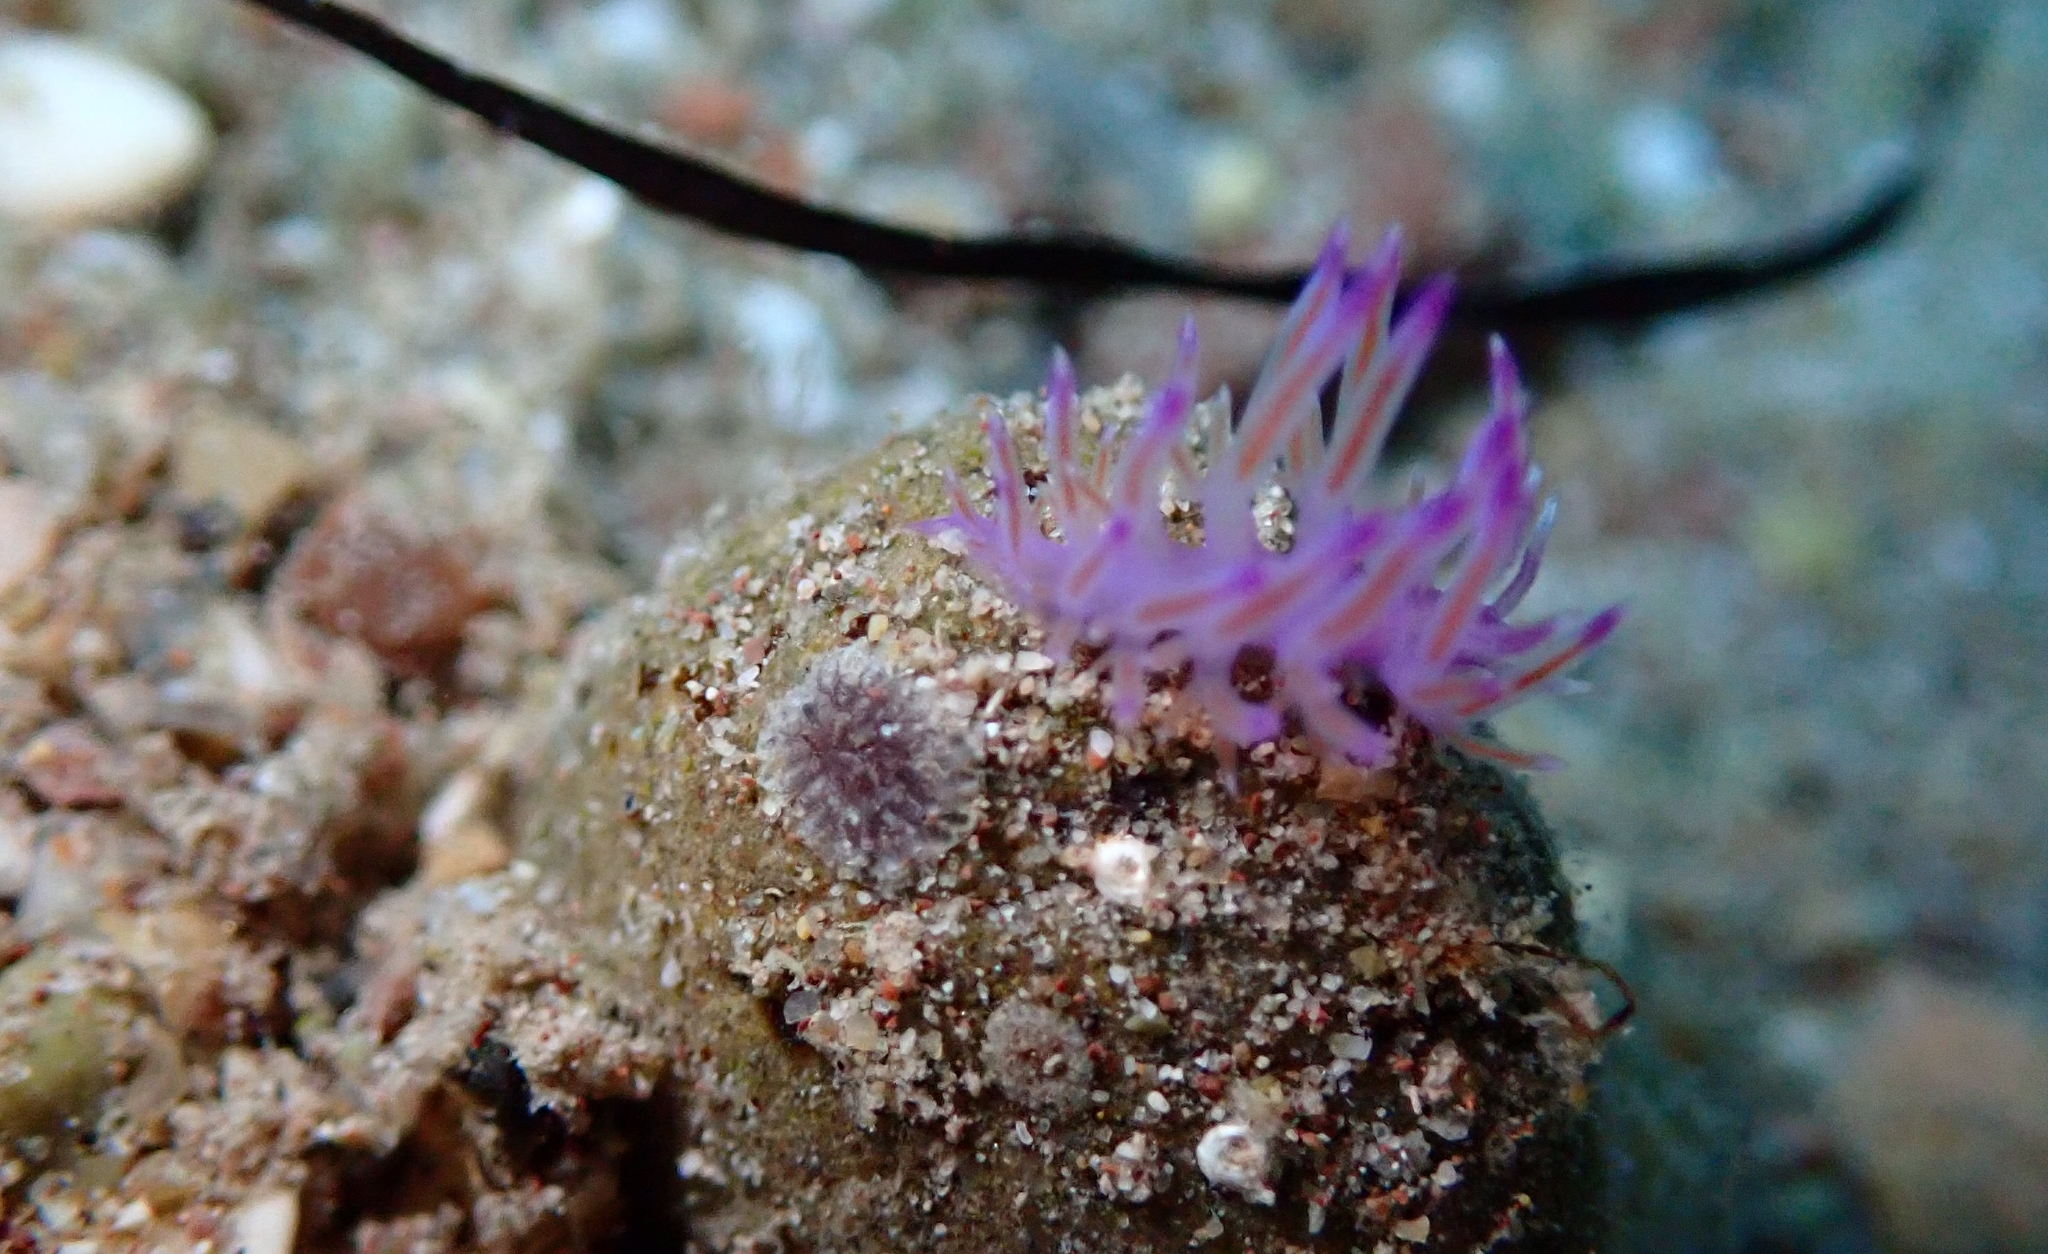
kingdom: Animalia
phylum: Mollusca
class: Gastropoda
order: Nudibranchia
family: Flabellinidae
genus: Flabellina
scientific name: Flabellina affinis
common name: Mediterranean violet aeolid
